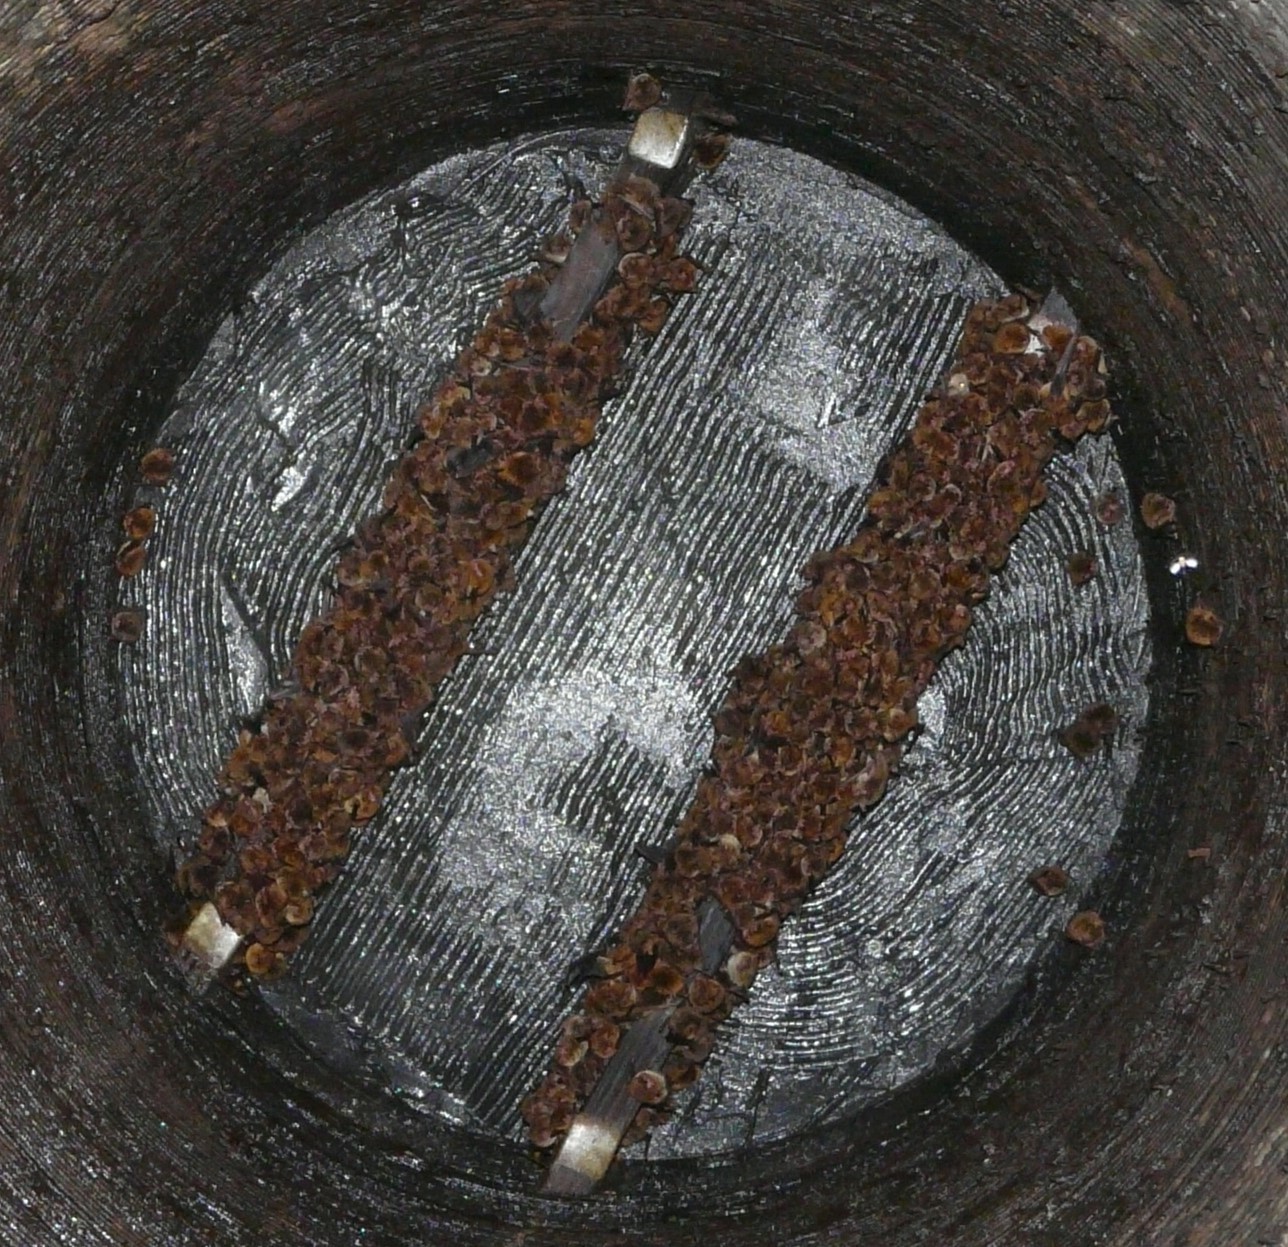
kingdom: Animalia
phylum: Chordata
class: Mammalia
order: Chiroptera
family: Vespertilionidae
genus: Myotis
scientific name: Myotis austroriparius
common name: Southeastern myotis
